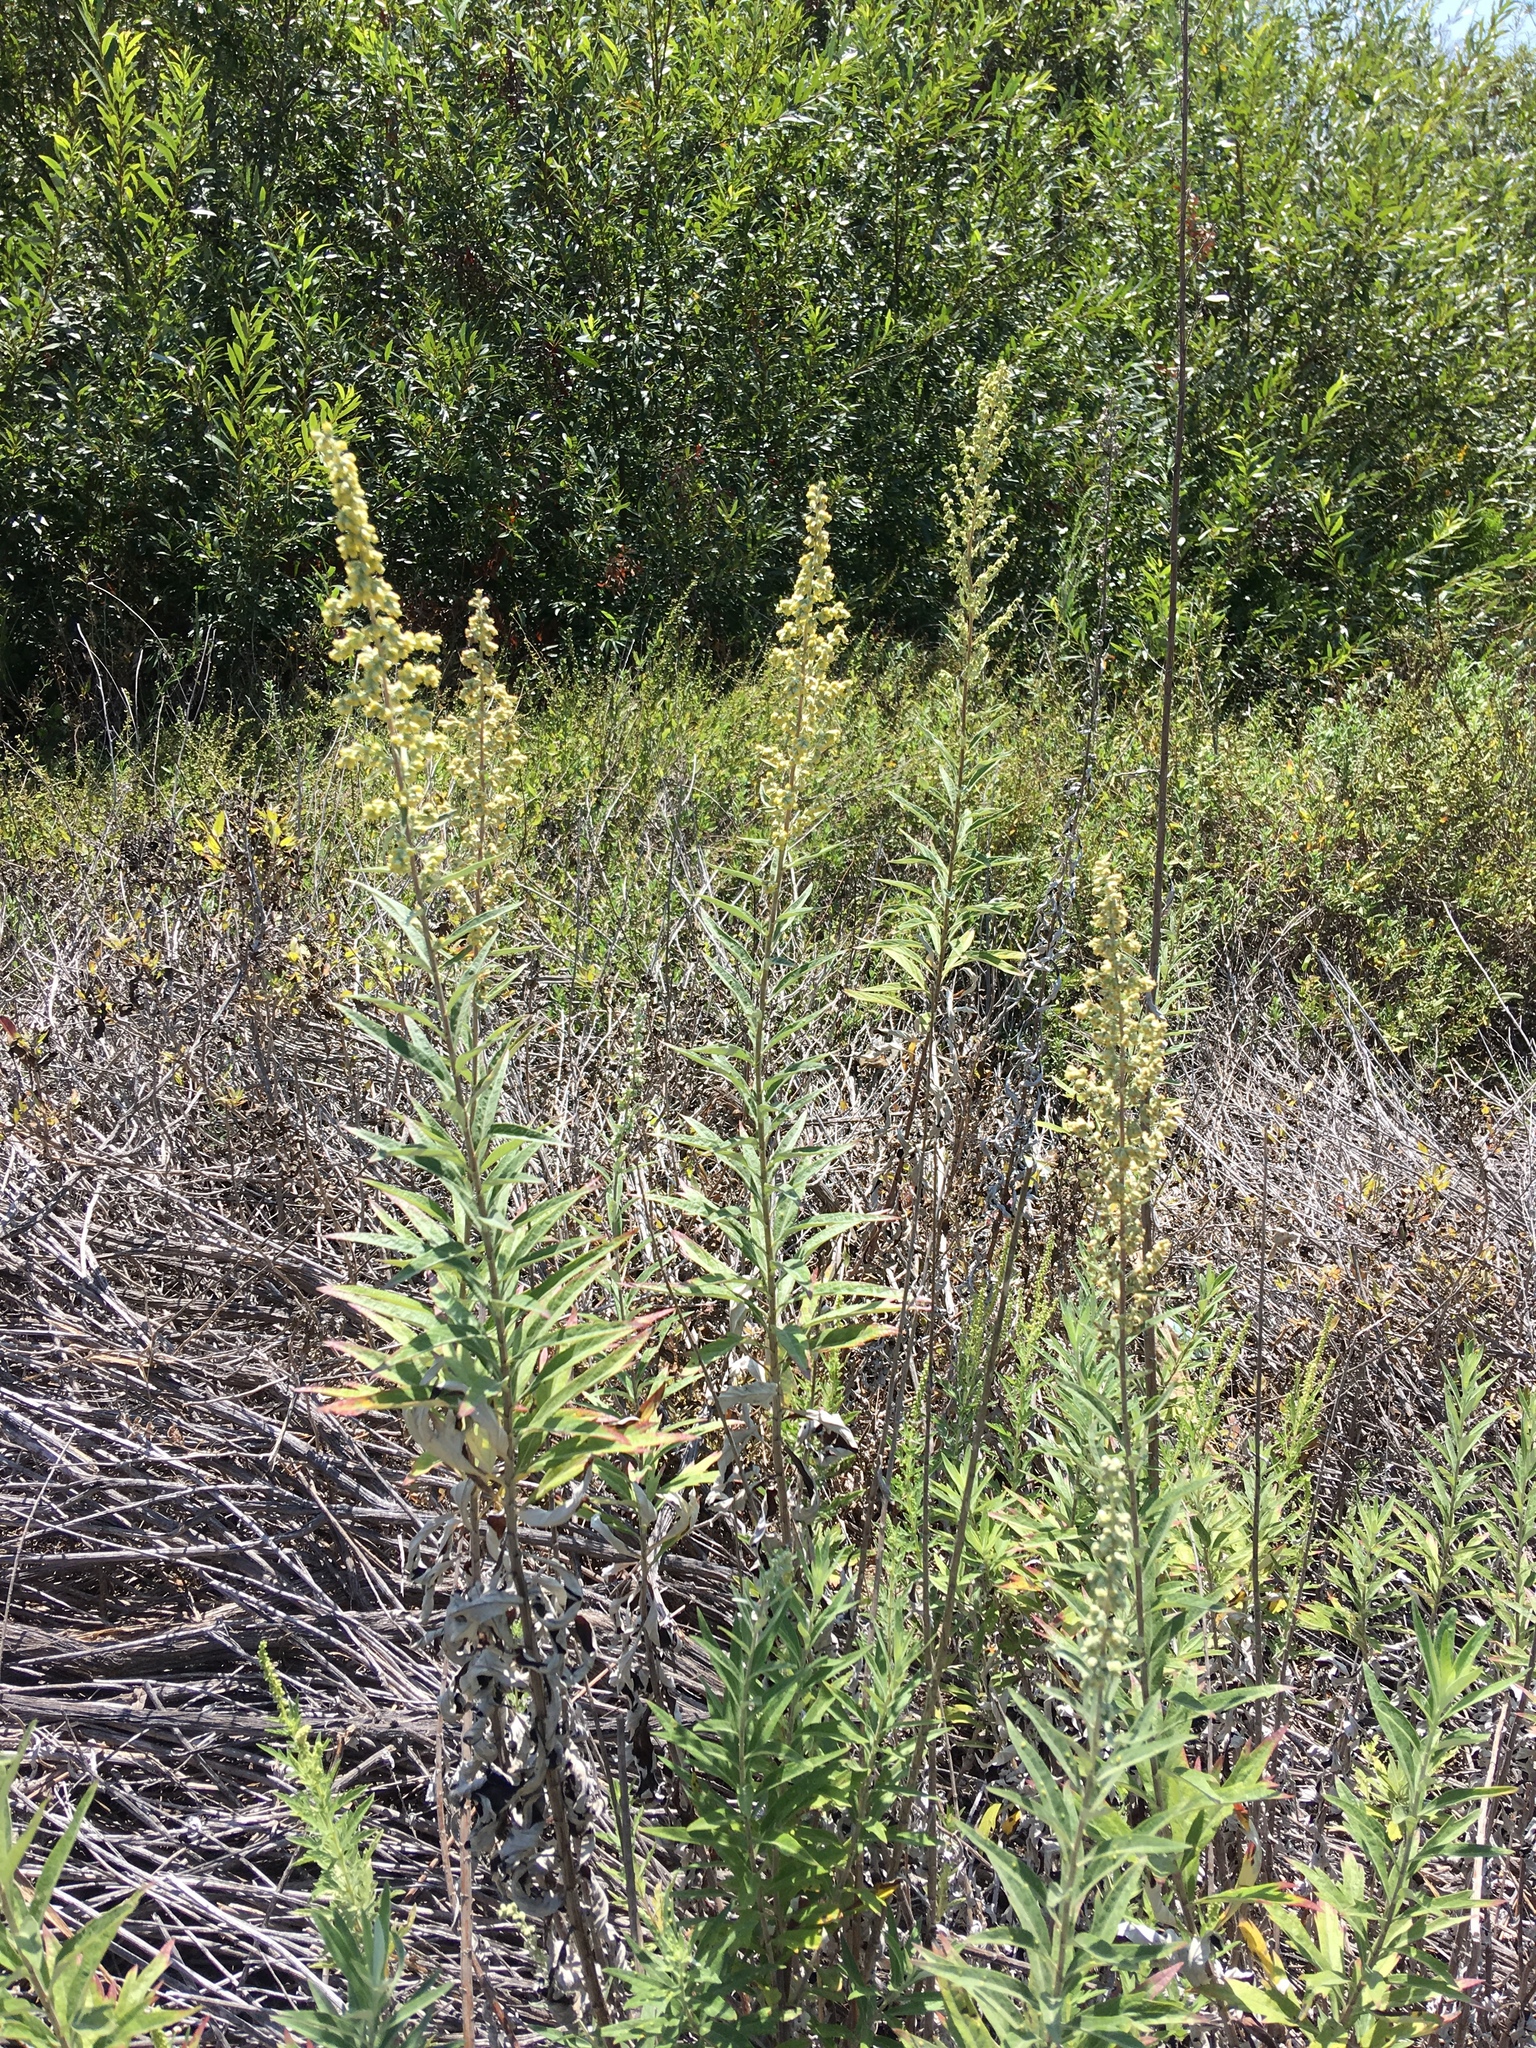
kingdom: Plantae
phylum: Tracheophyta
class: Magnoliopsida
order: Asterales
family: Asteraceae
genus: Artemisia
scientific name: Artemisia douglasiana
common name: Northwest mugwort
